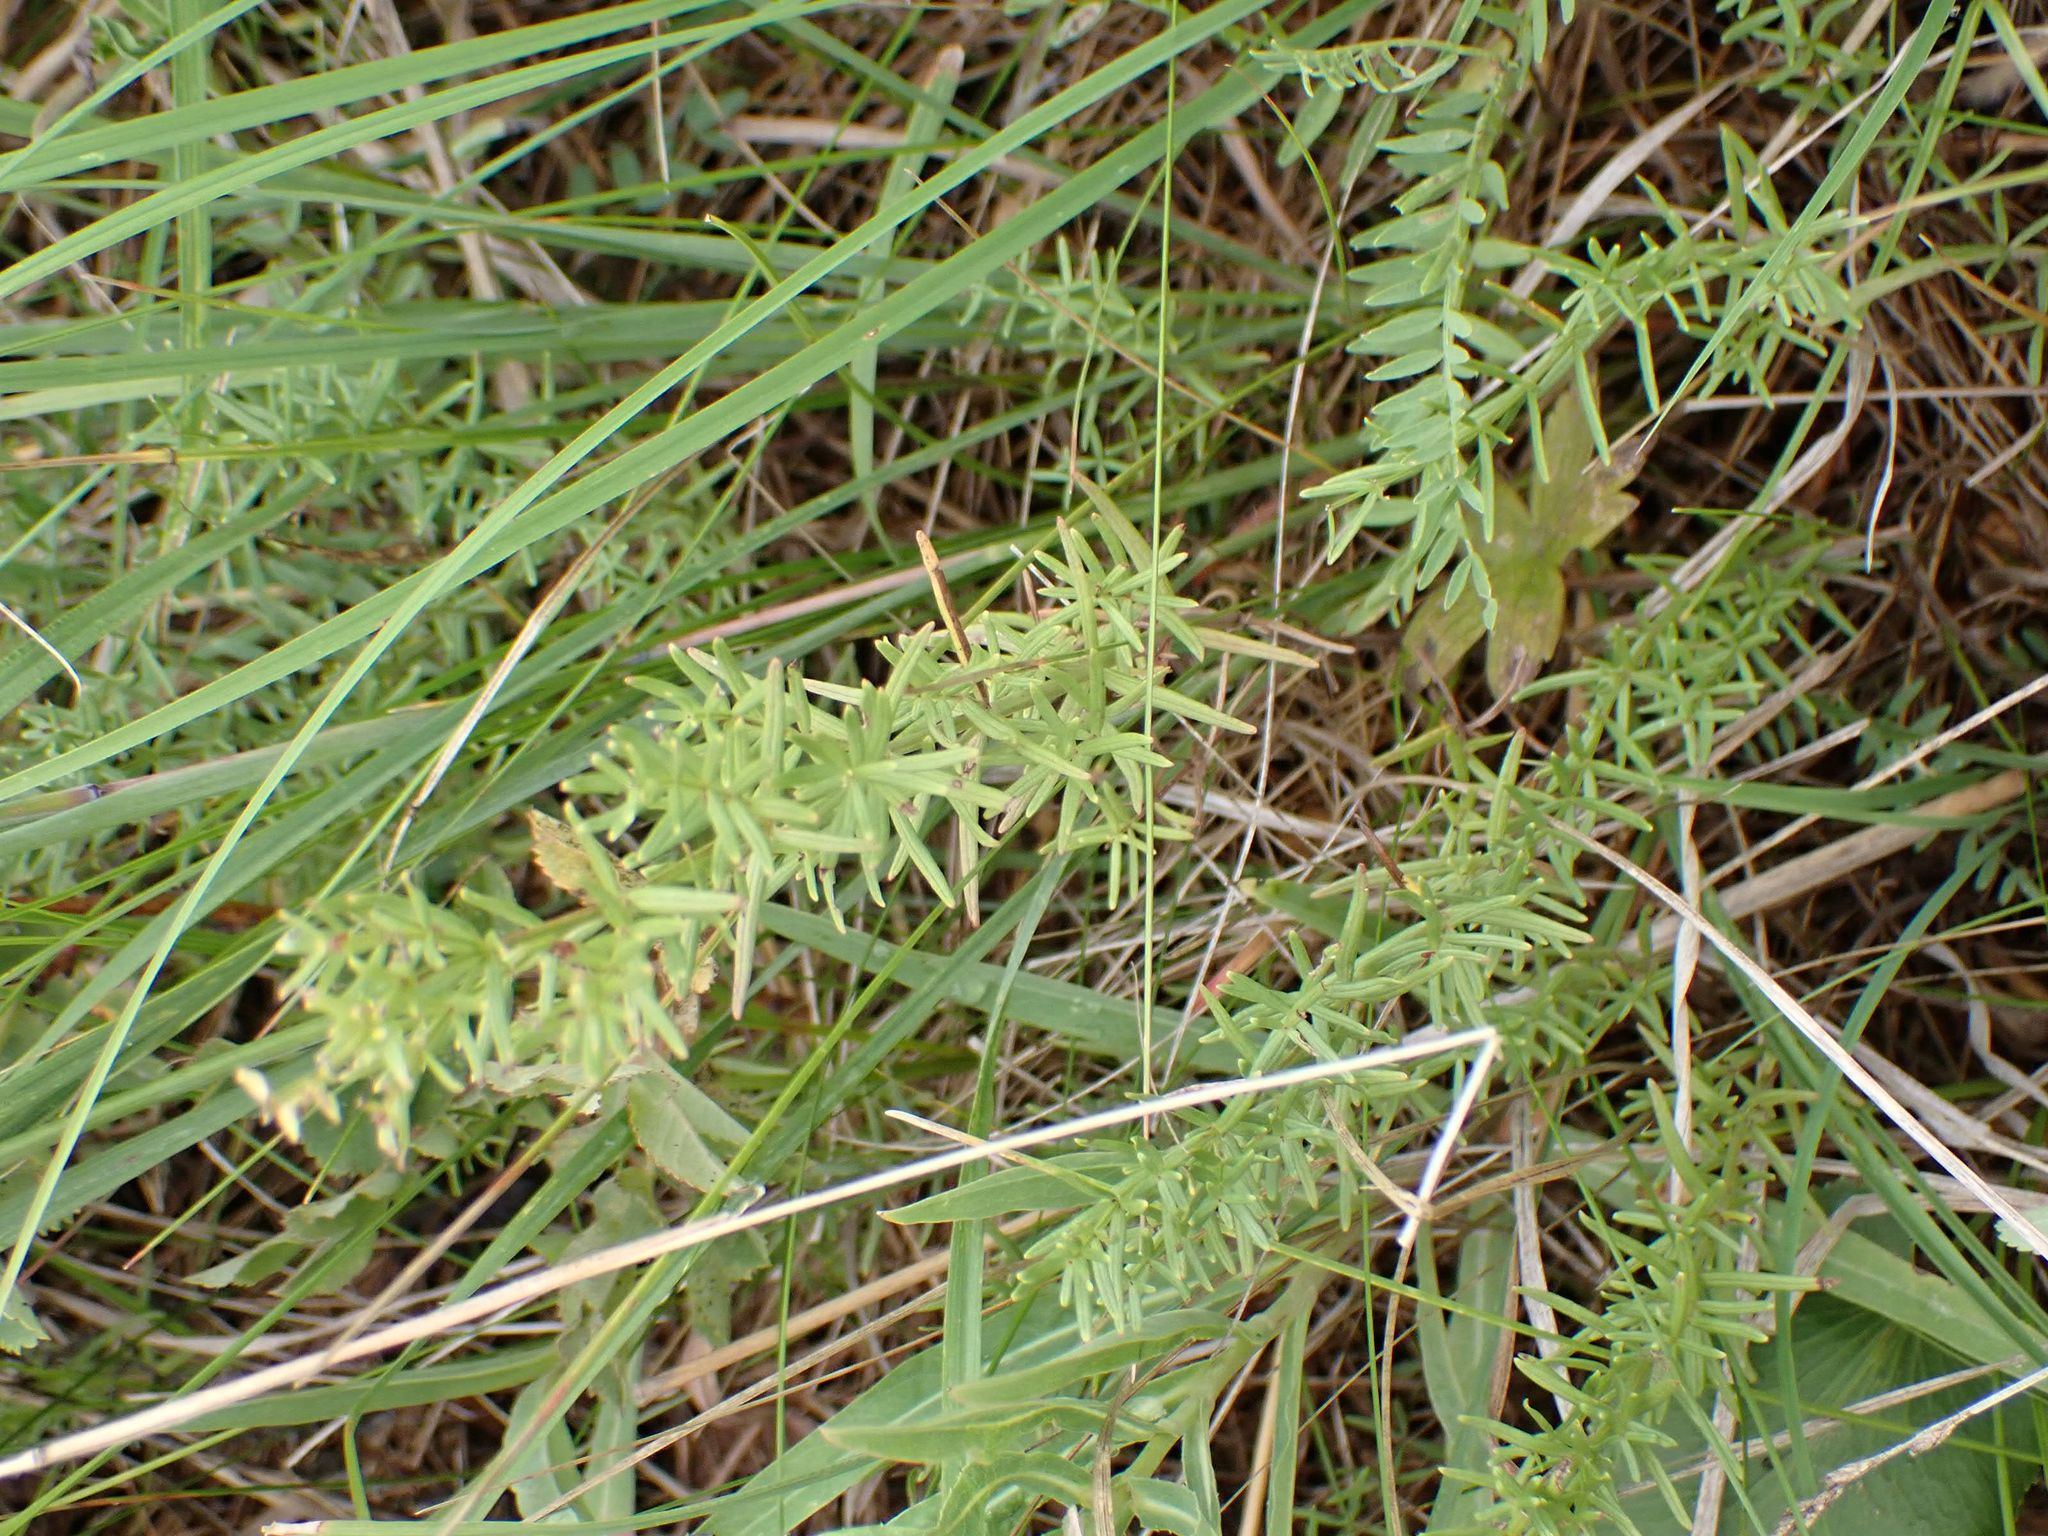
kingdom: Plantae
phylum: Tracheophyta
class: Magnoliopsida
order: Gentianales
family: Rubiaceae
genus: Galium
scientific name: Galium boreale
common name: Northern bedstraw
